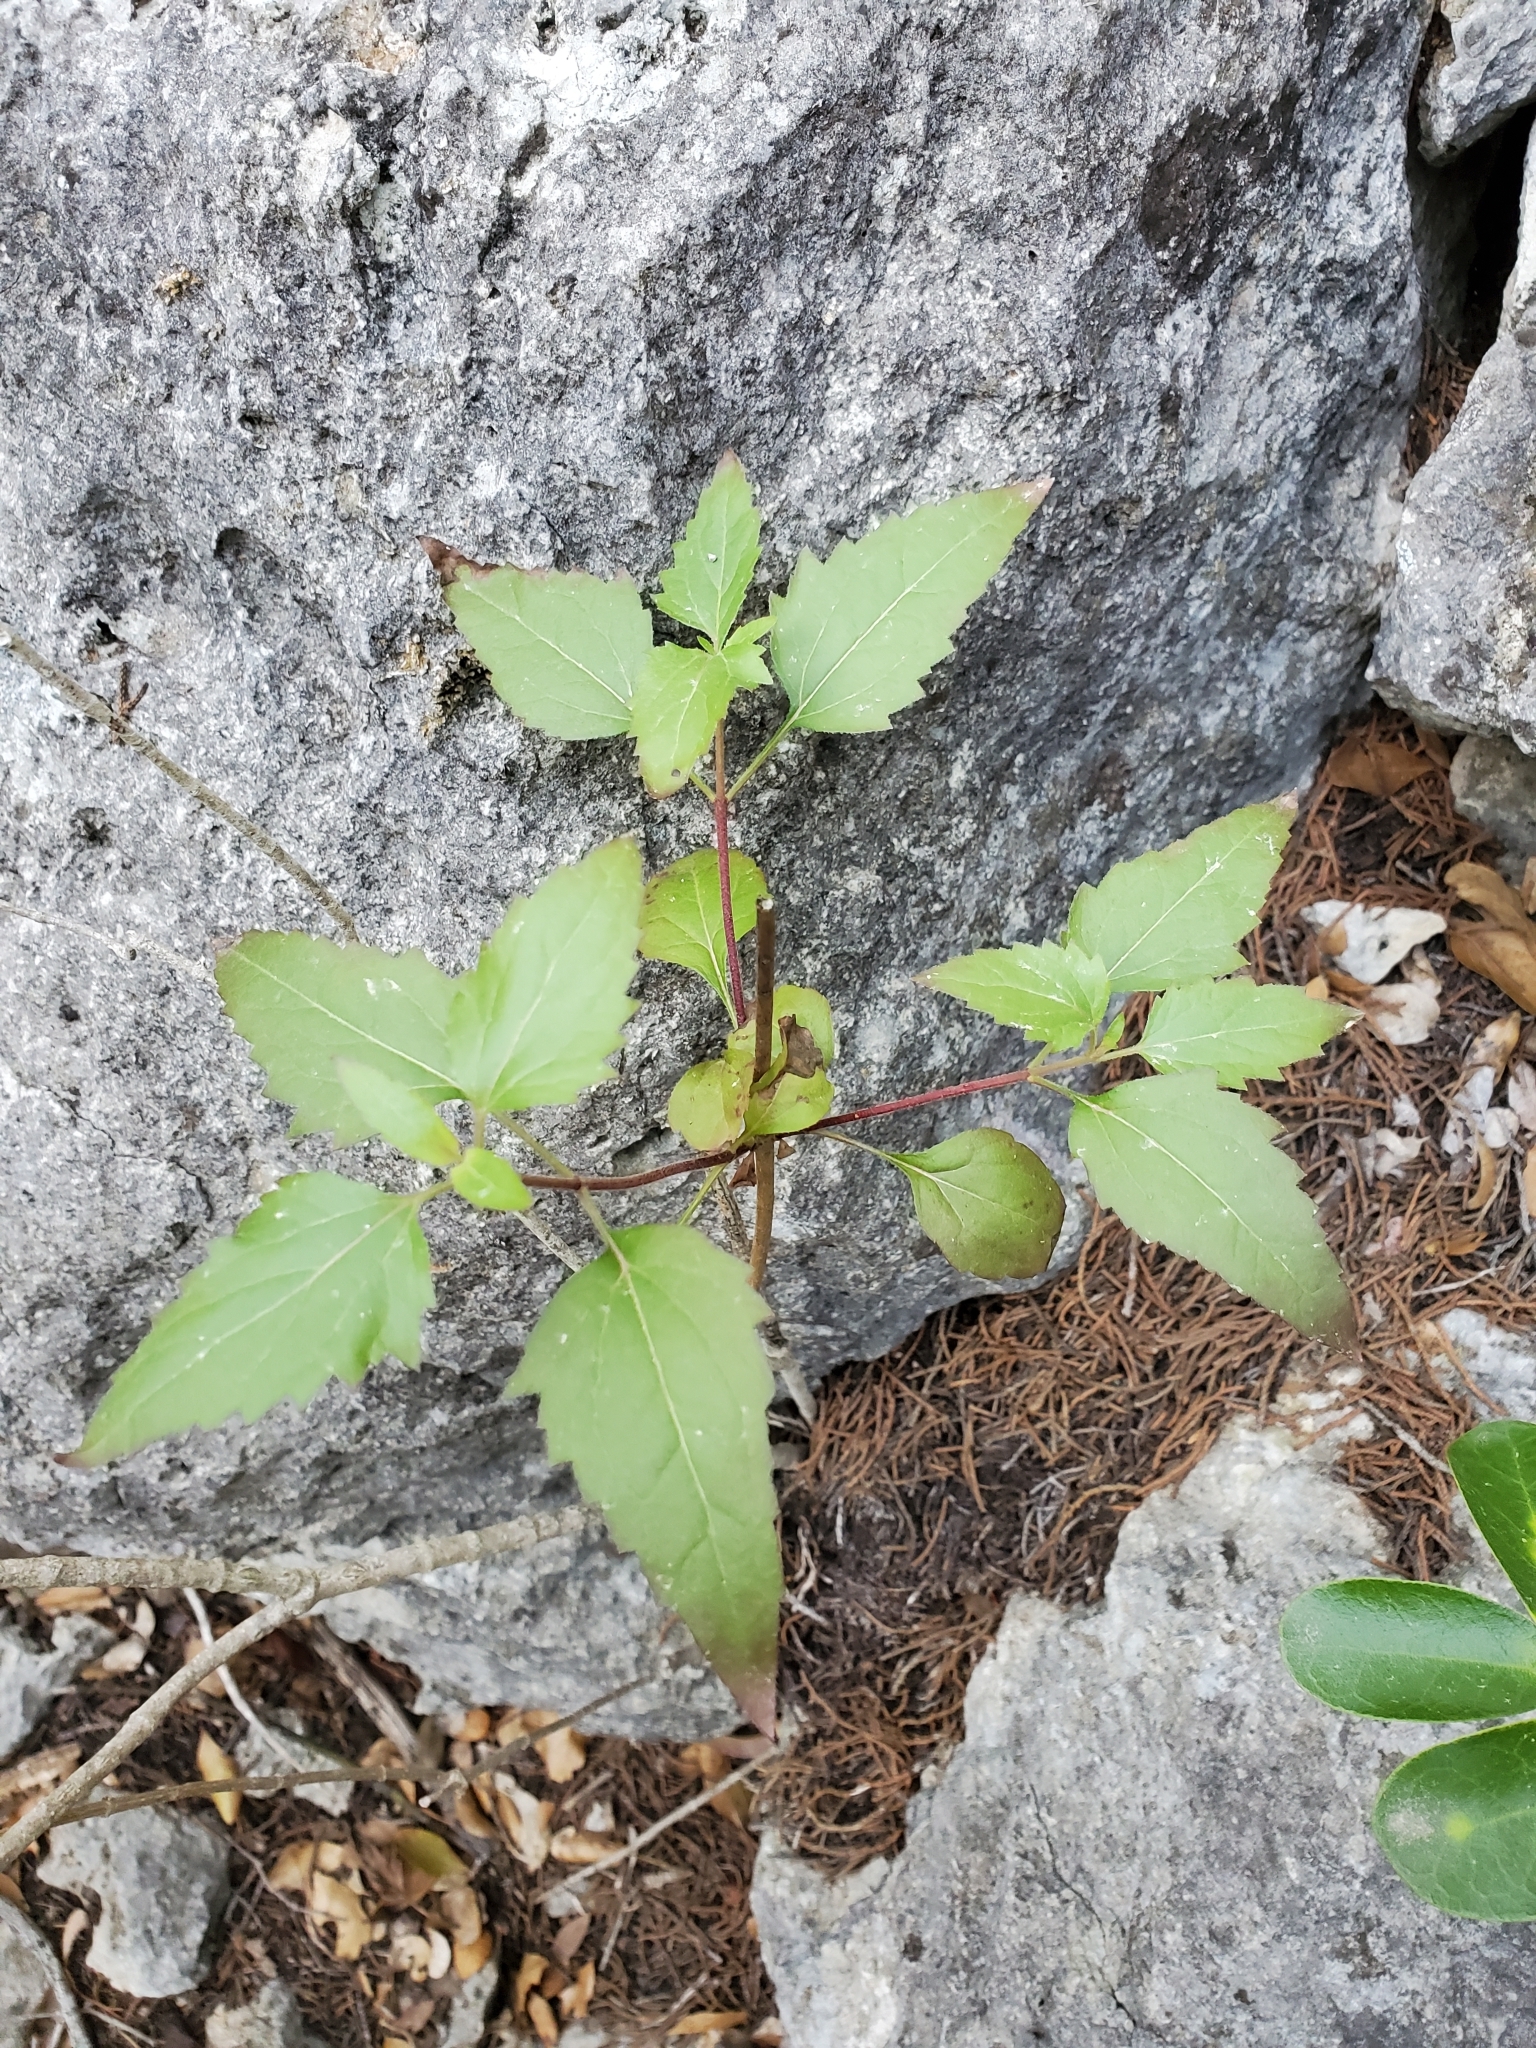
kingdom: Plantae
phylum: Tracheophyta
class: Magnoliopsida
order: Asterales
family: Asteraceae
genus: Ageratina
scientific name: Ageratina havanensis
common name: Havana snakeroot
